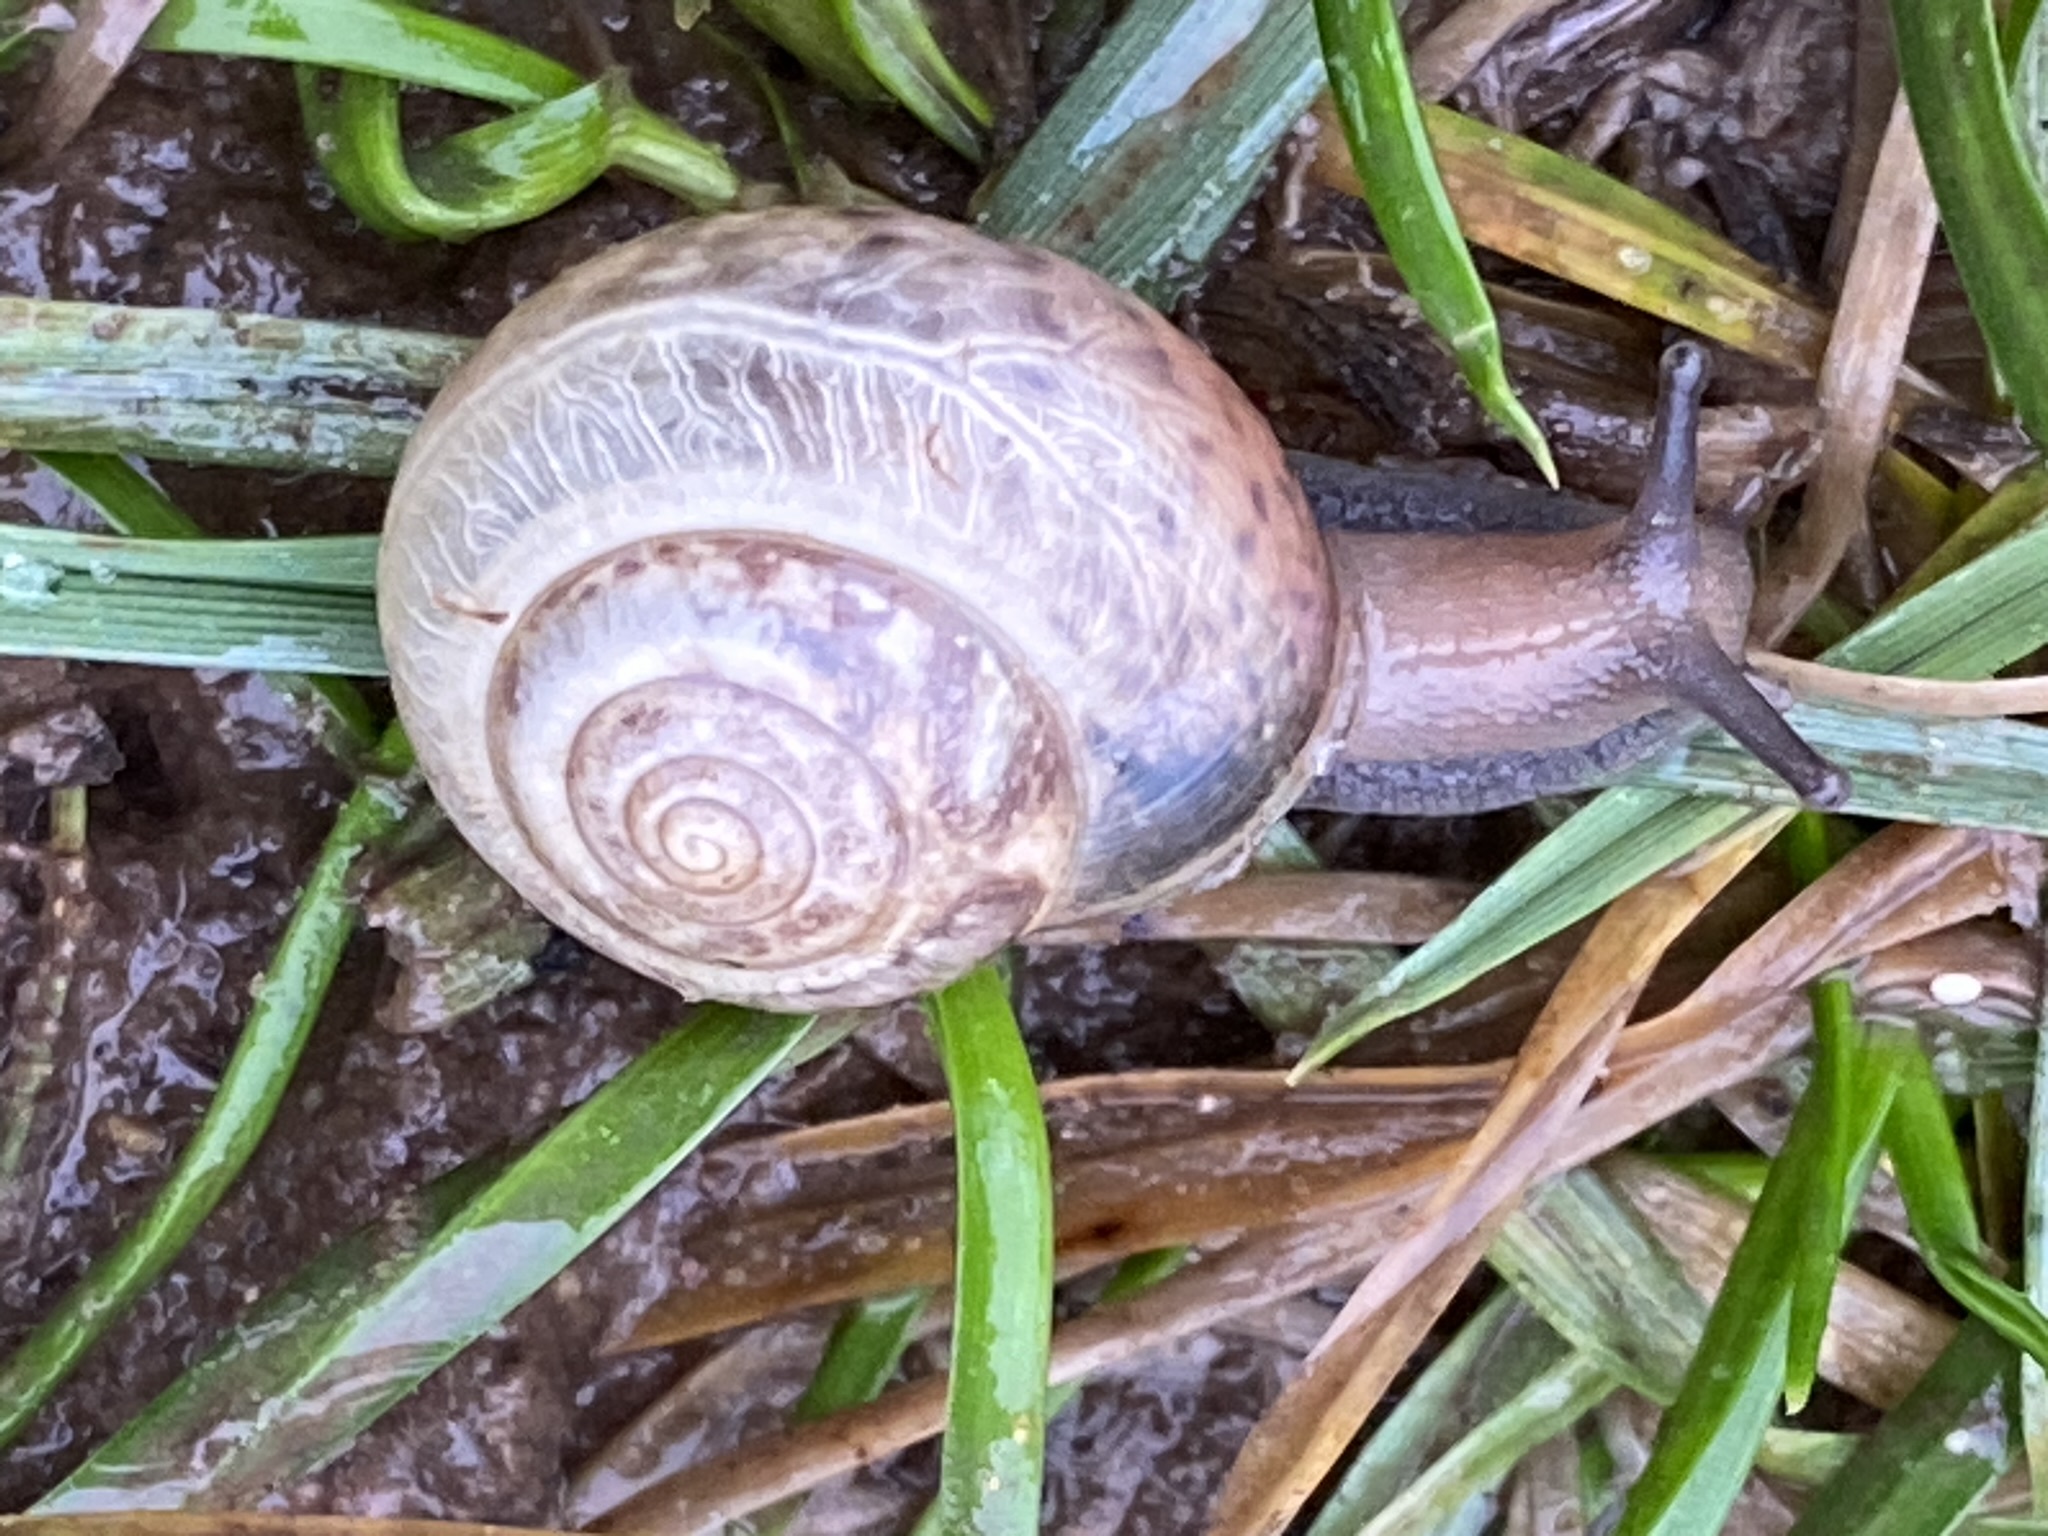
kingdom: Animalia
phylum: Mollusca
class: Gastropoda
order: Stylommatophora
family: Hygromiidae
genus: Monacha
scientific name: Monacha cantiana
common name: Kentish snail
